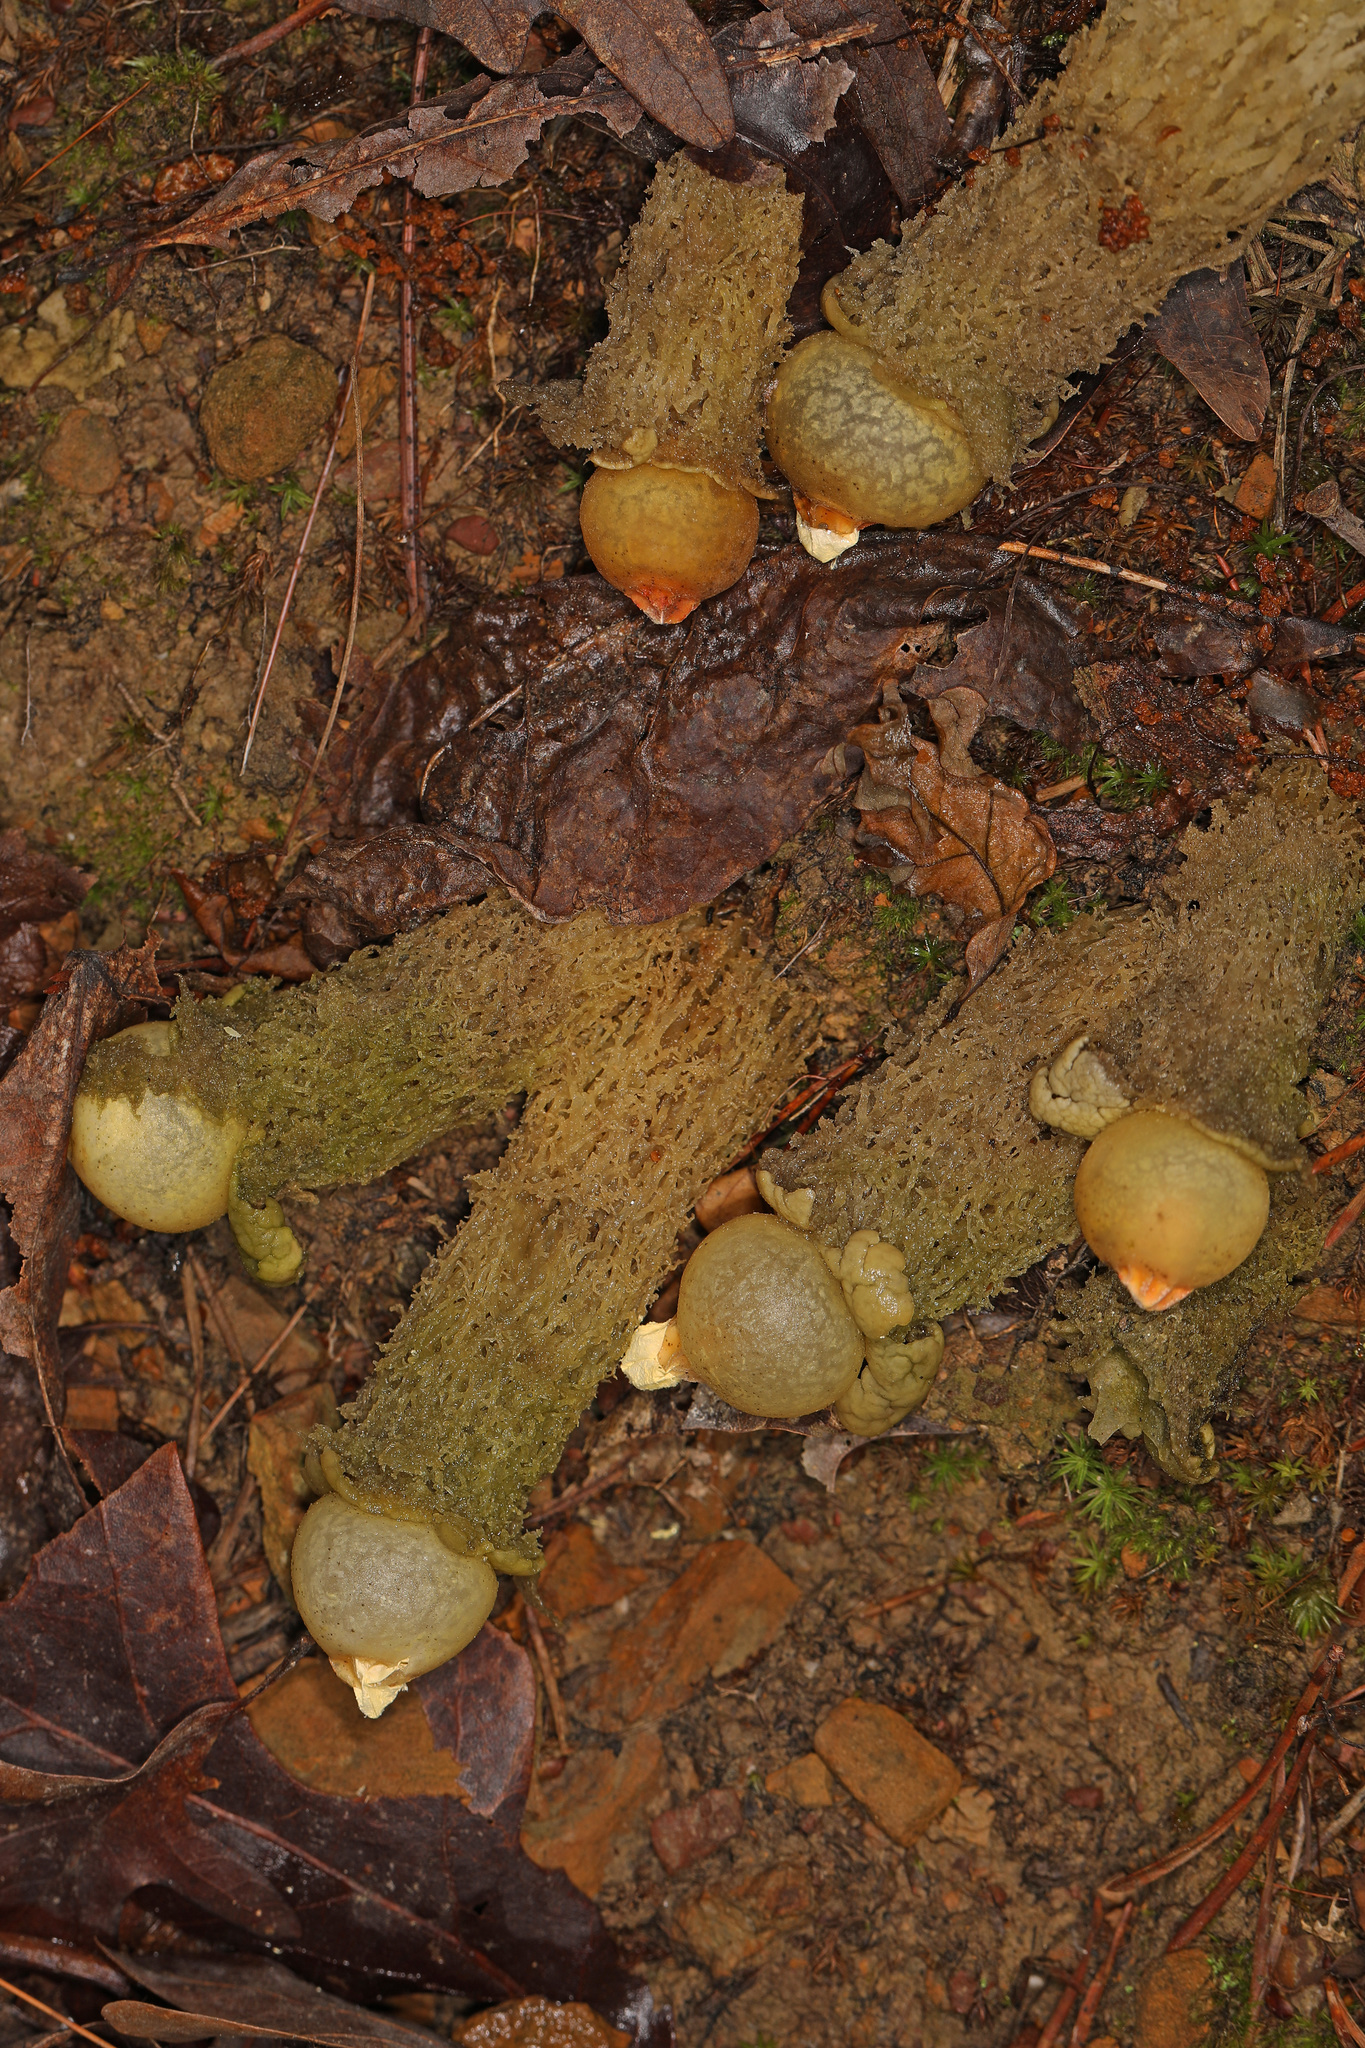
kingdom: Fungi
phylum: Basidiomycota
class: Agaricomycetes
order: Boletales
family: Calostomataceae
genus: Calostoma
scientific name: Calostoma lutescens
